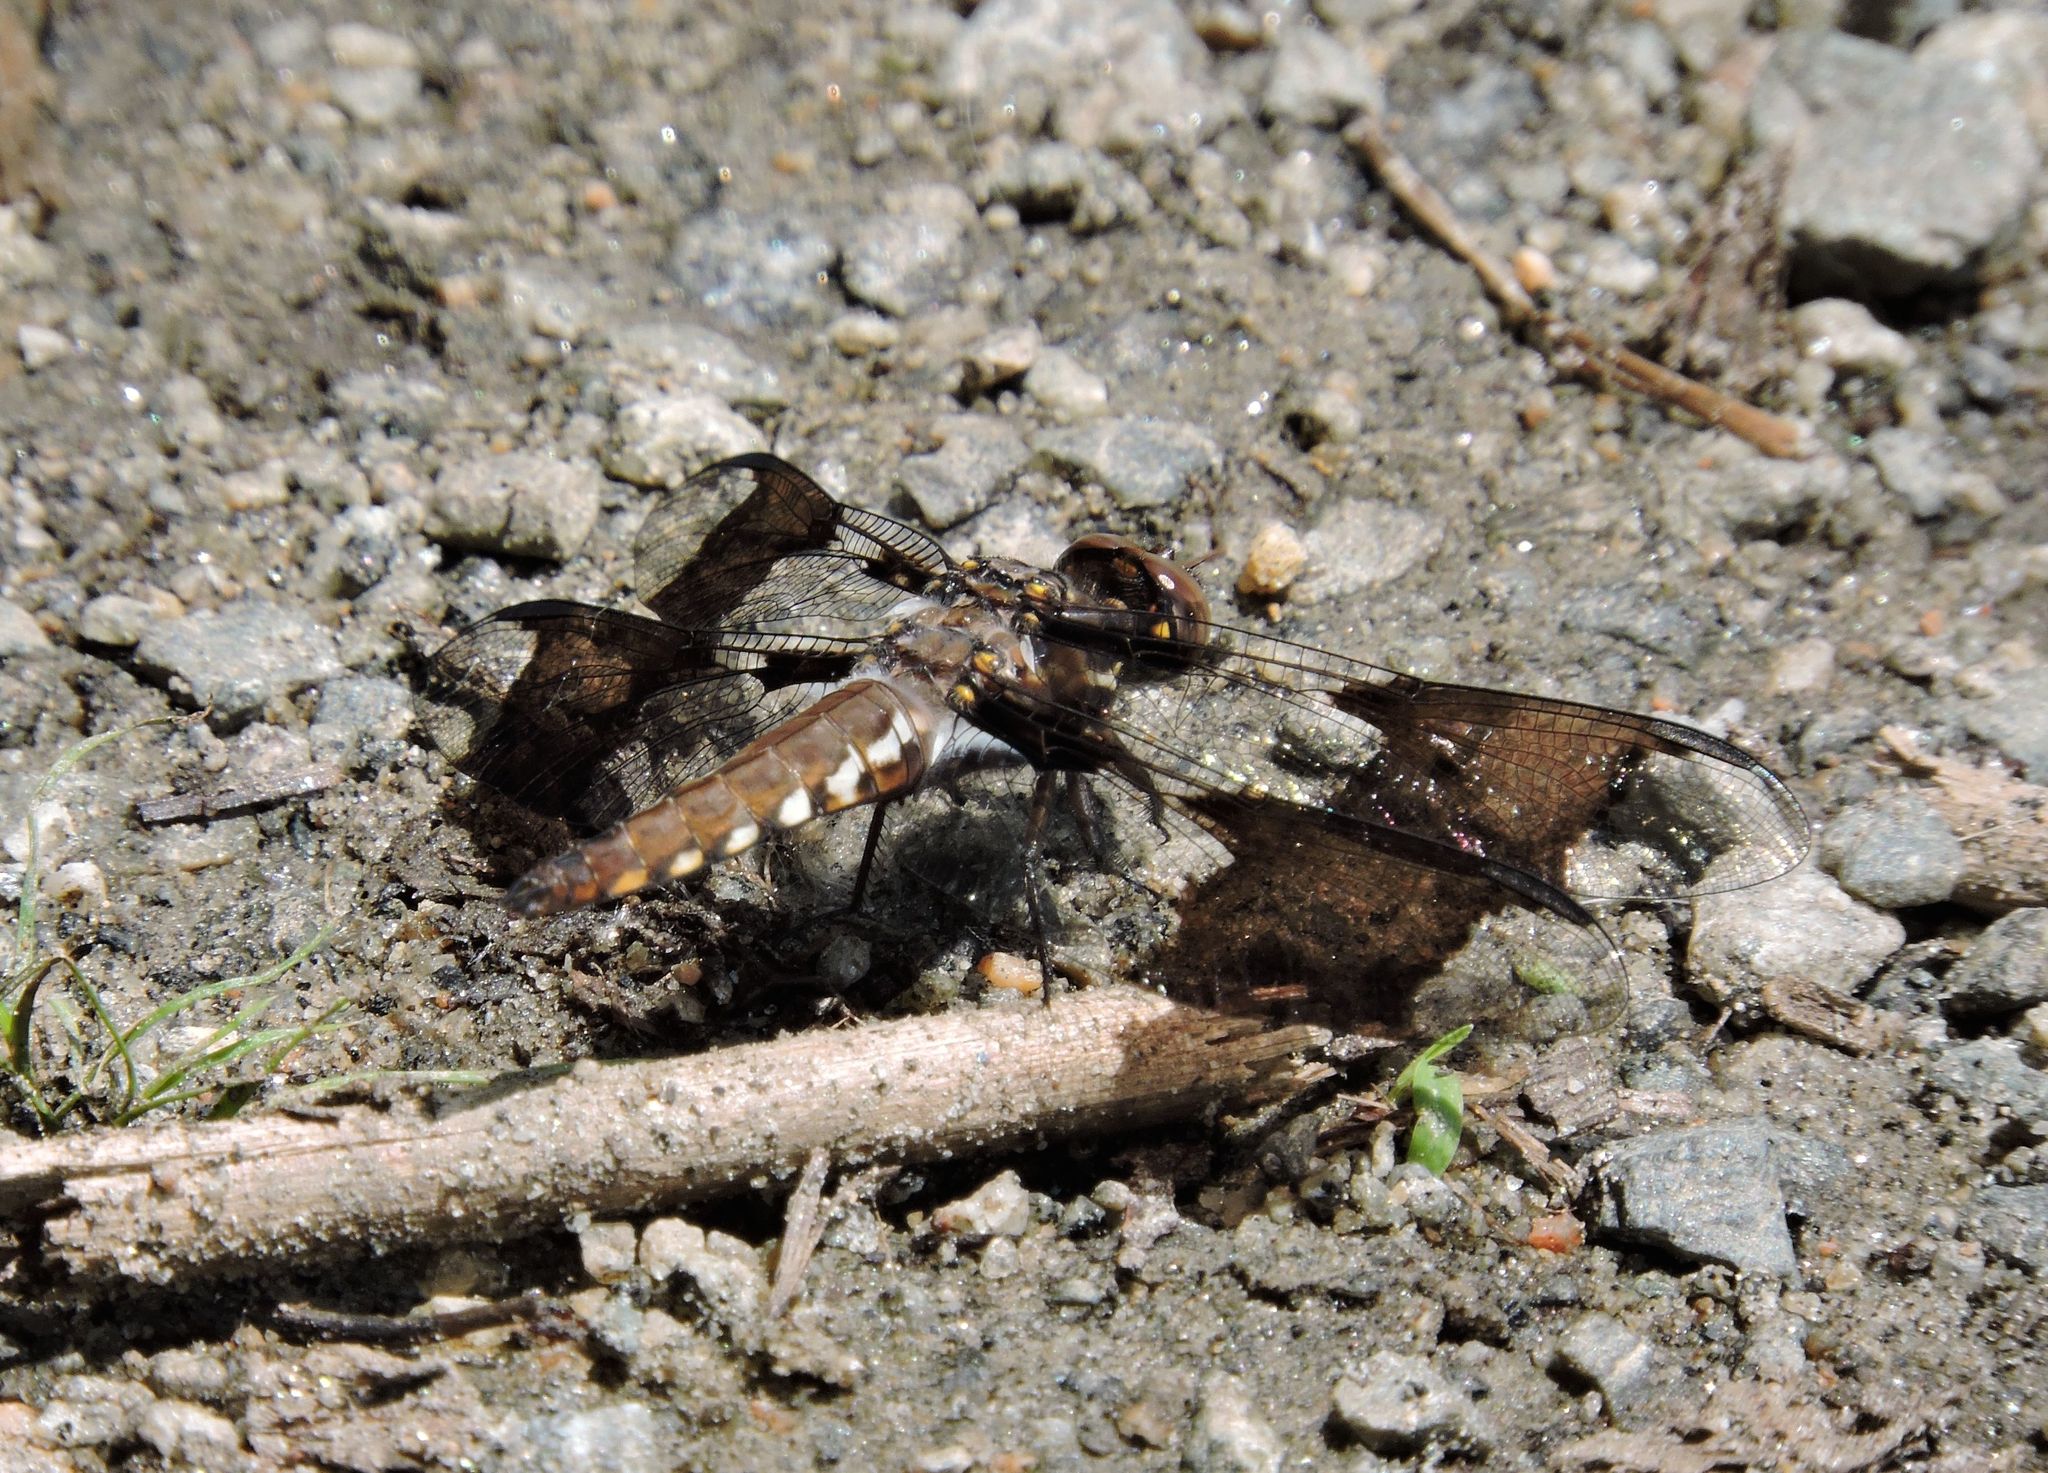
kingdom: Animalia
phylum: Arthropoda
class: Insecta
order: Odonata
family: Libellulidae
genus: Plathemis
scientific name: Plathemis lydia
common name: Common whitetail
